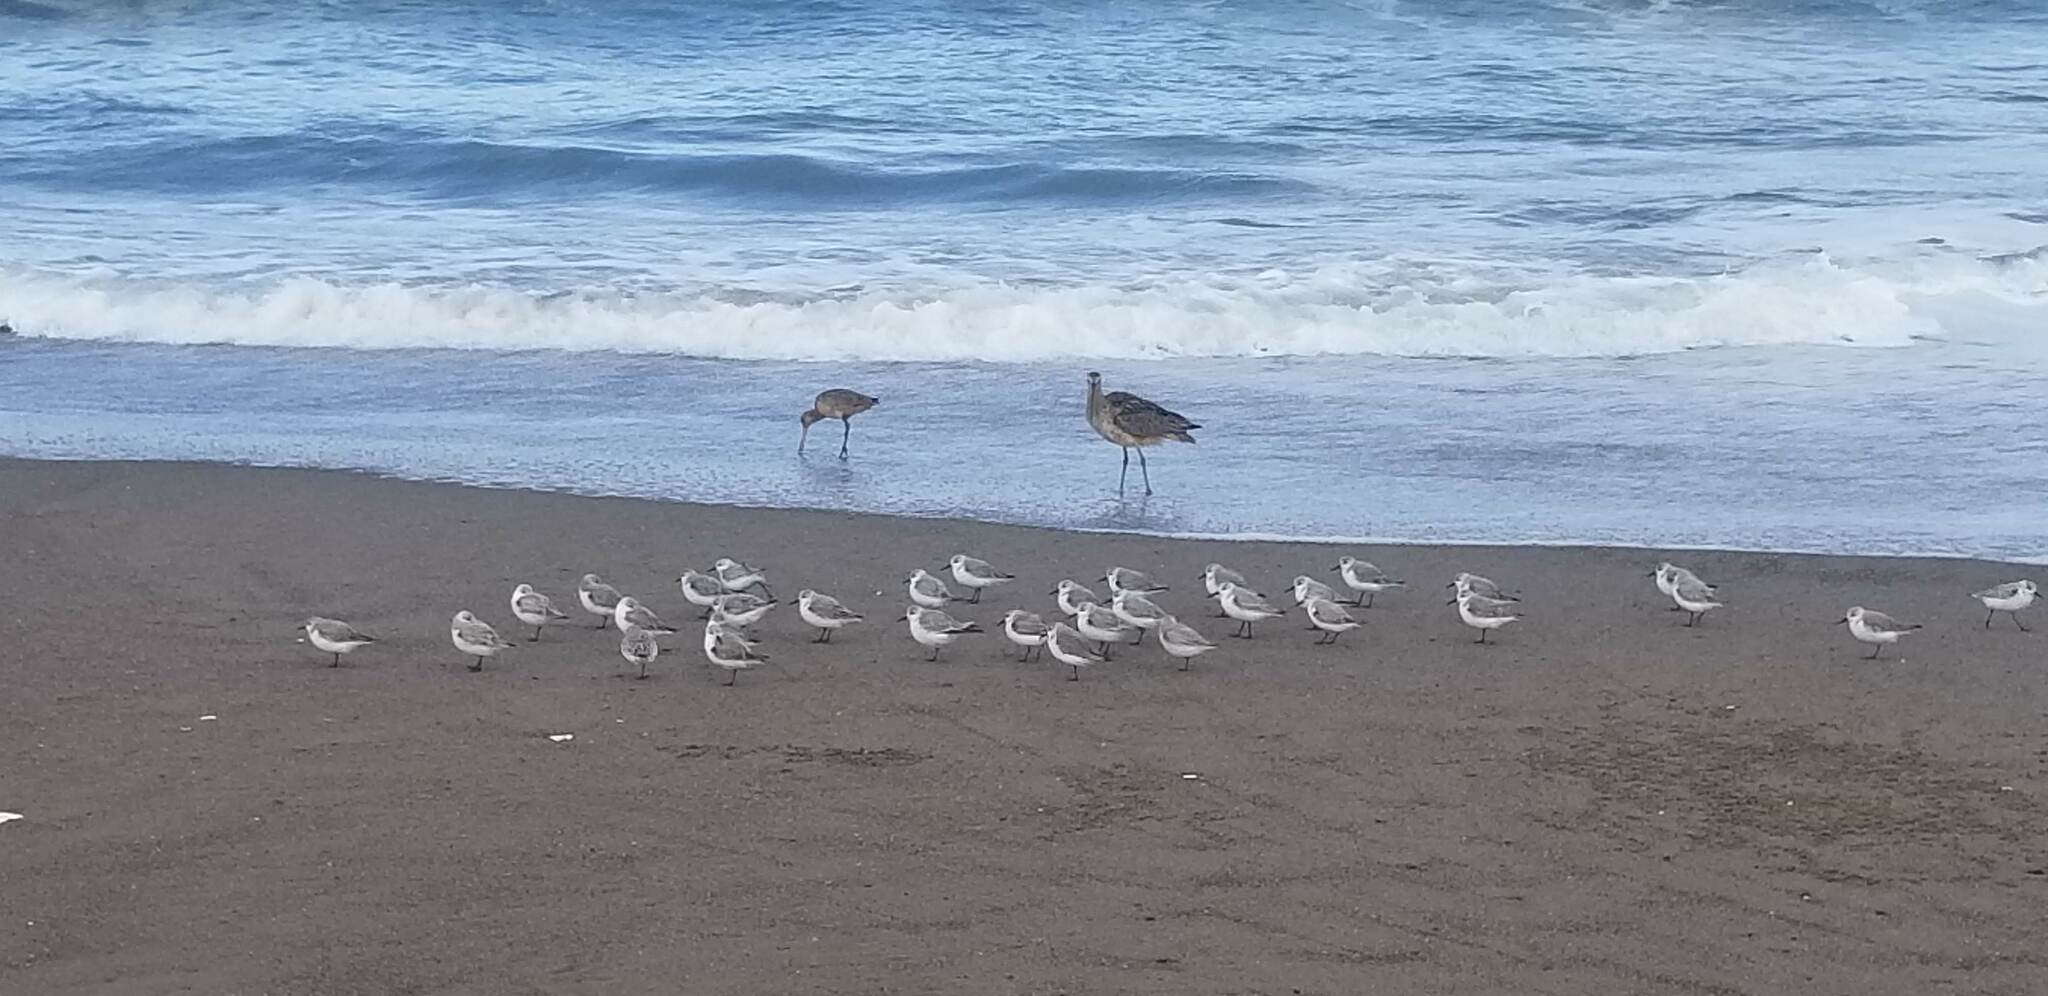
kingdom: Animalia
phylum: Chordata
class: Aves
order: Charadriiformes
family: Scolopacidae
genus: Limosa
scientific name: Limosa fedoa
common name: Marbled godwit
